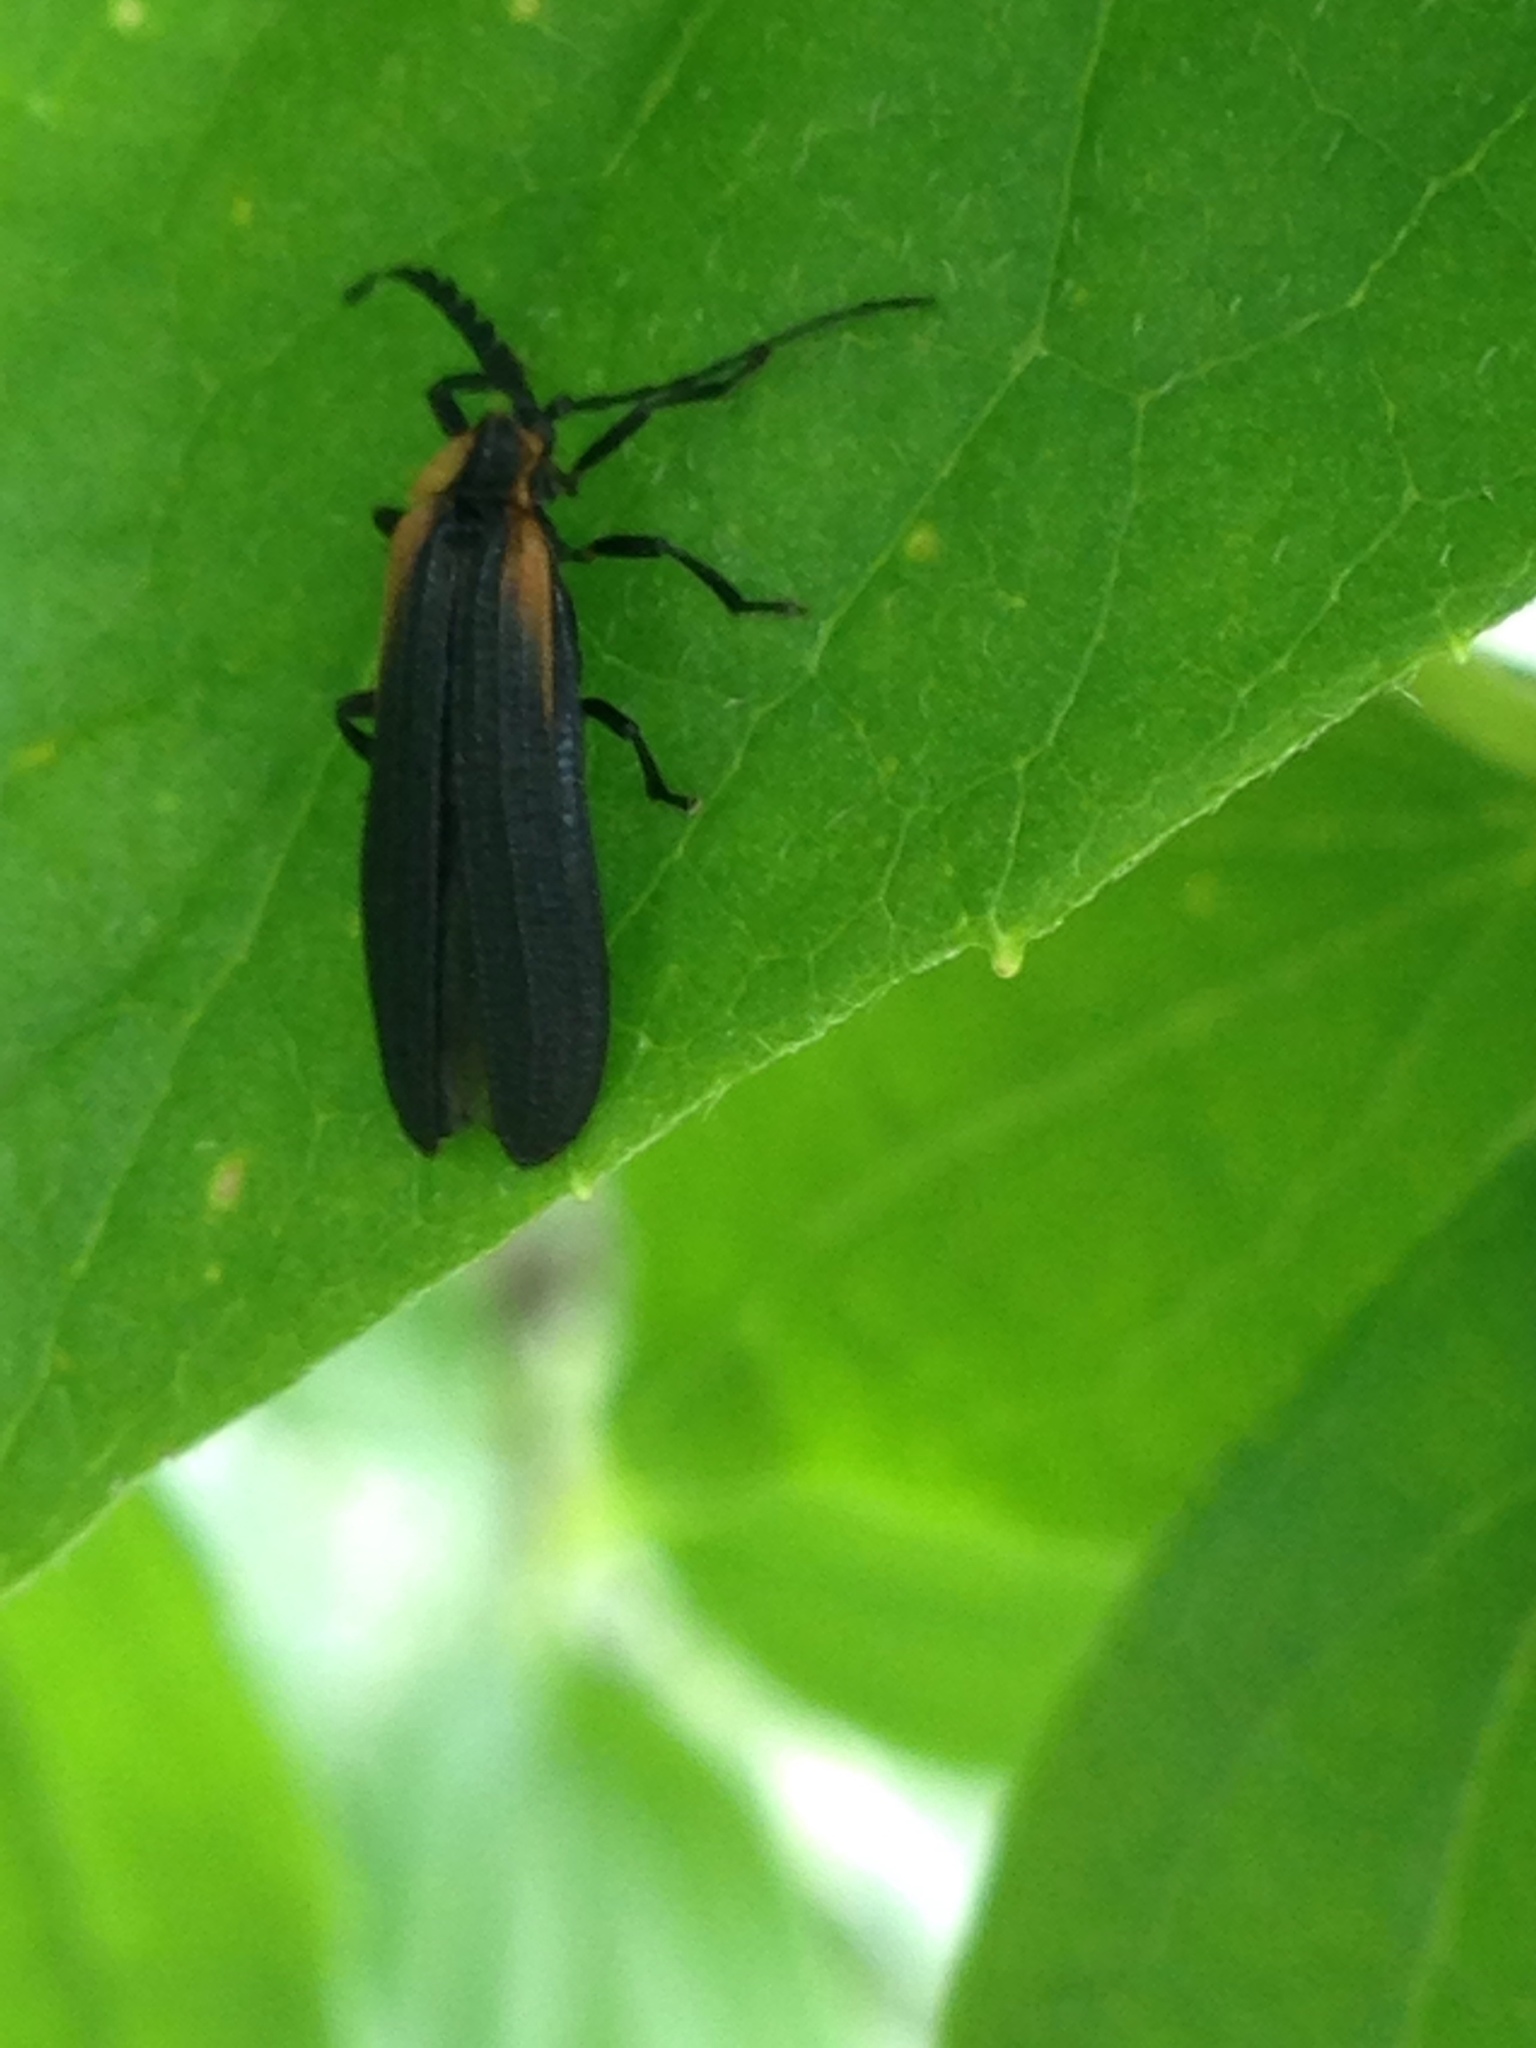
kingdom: Animalia
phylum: Arthropoda
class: Insecta
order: Coleoptera
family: Lycidae
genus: Leptoceletes
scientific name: Leptoceletes basalis
